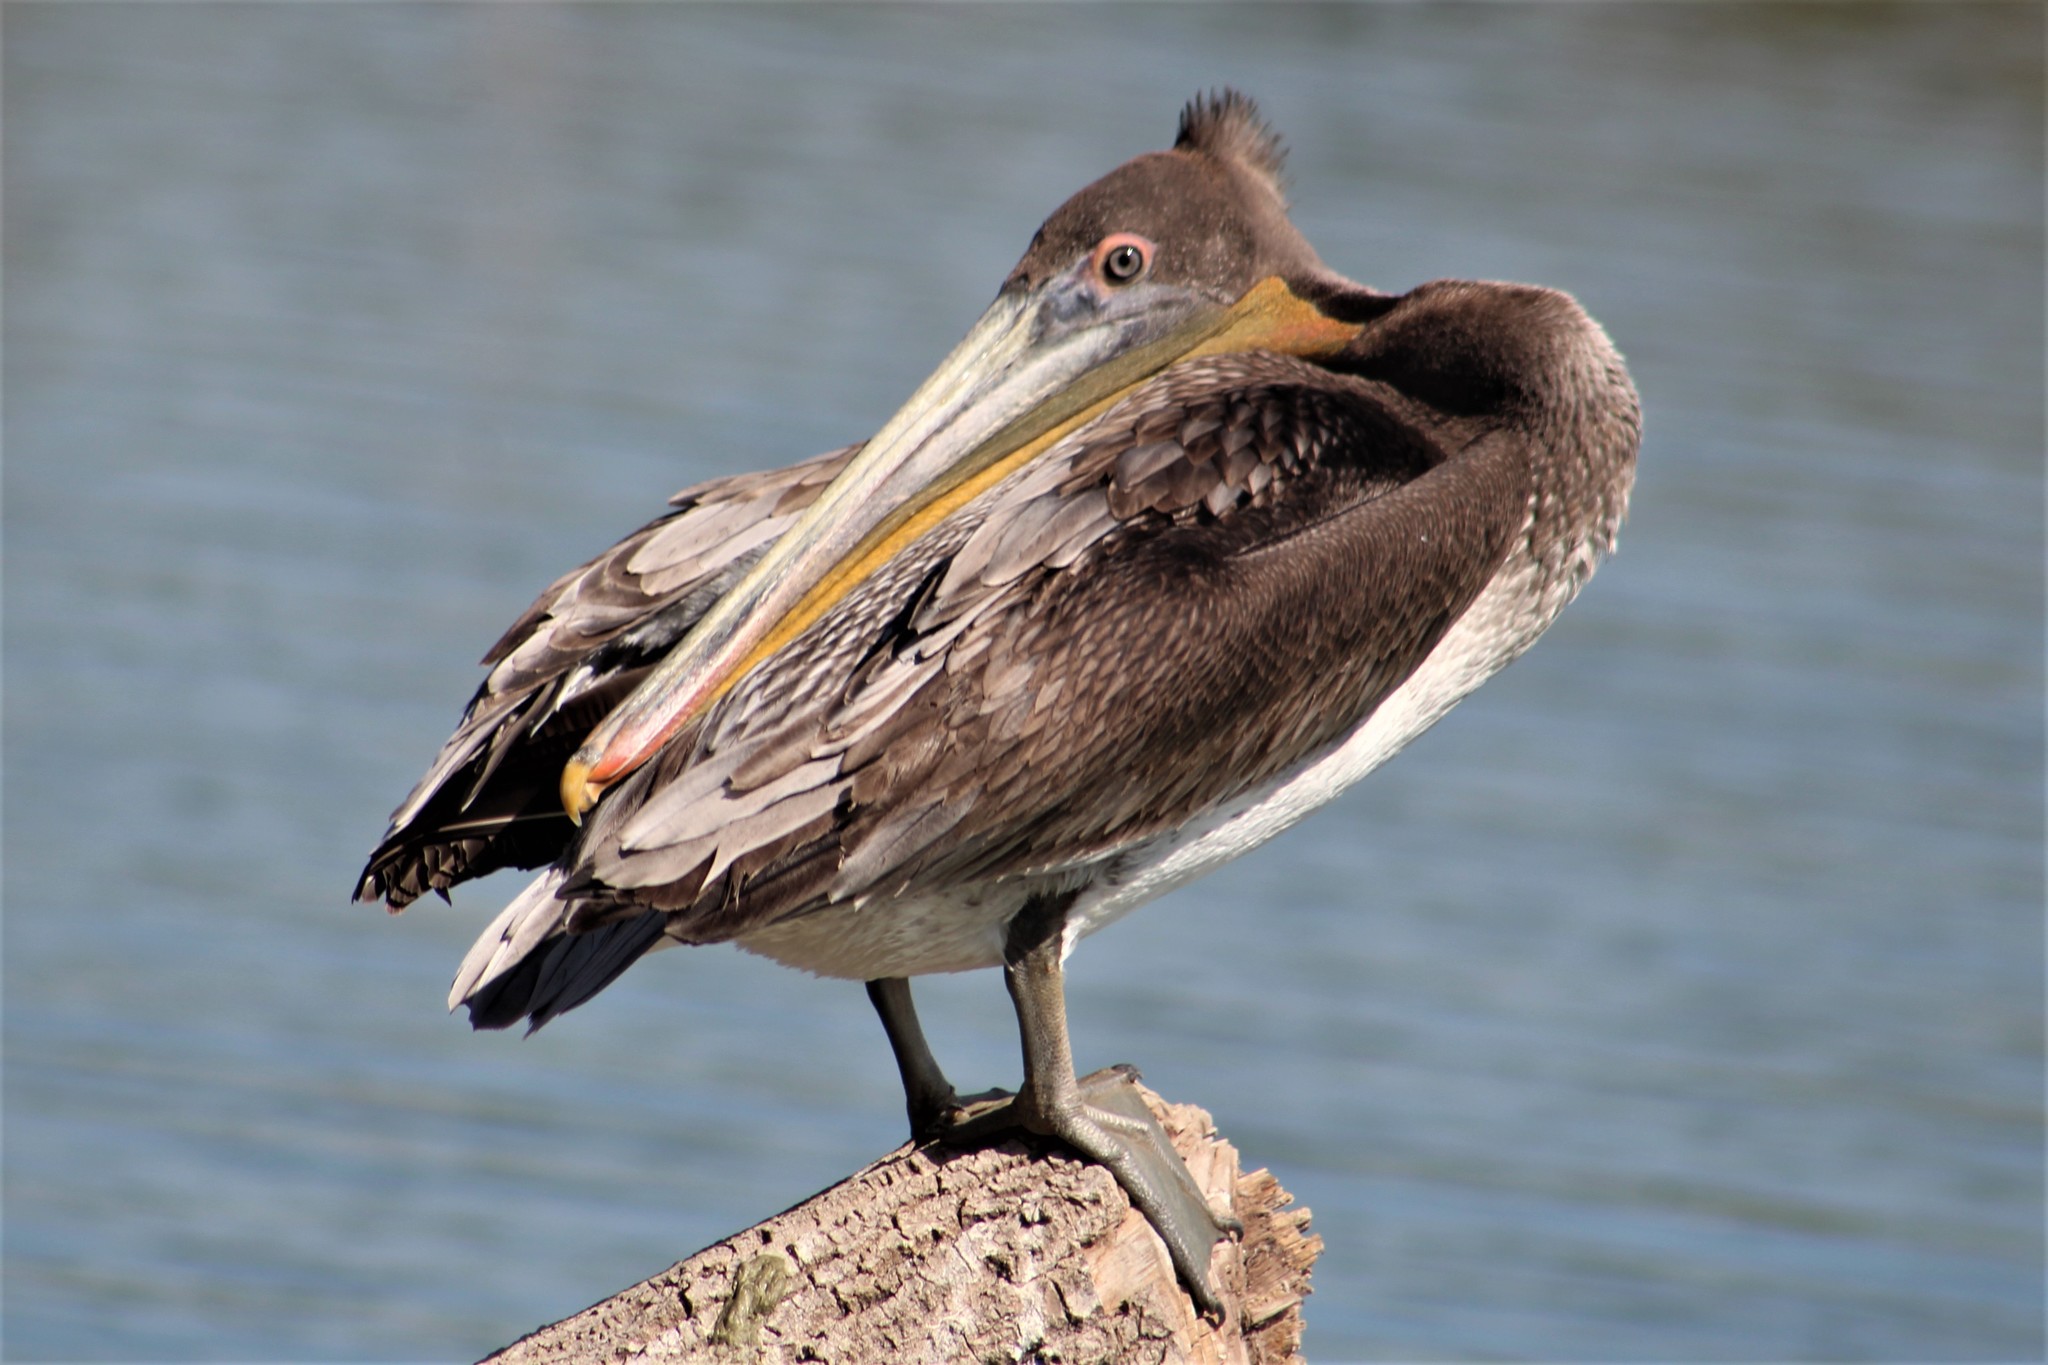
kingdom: Animalia
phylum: Chordata
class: Aves
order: Pelecaniformes
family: Pelecanidae
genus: Pelecanus
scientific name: Pelecanus occidentalis
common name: Brown pelican
